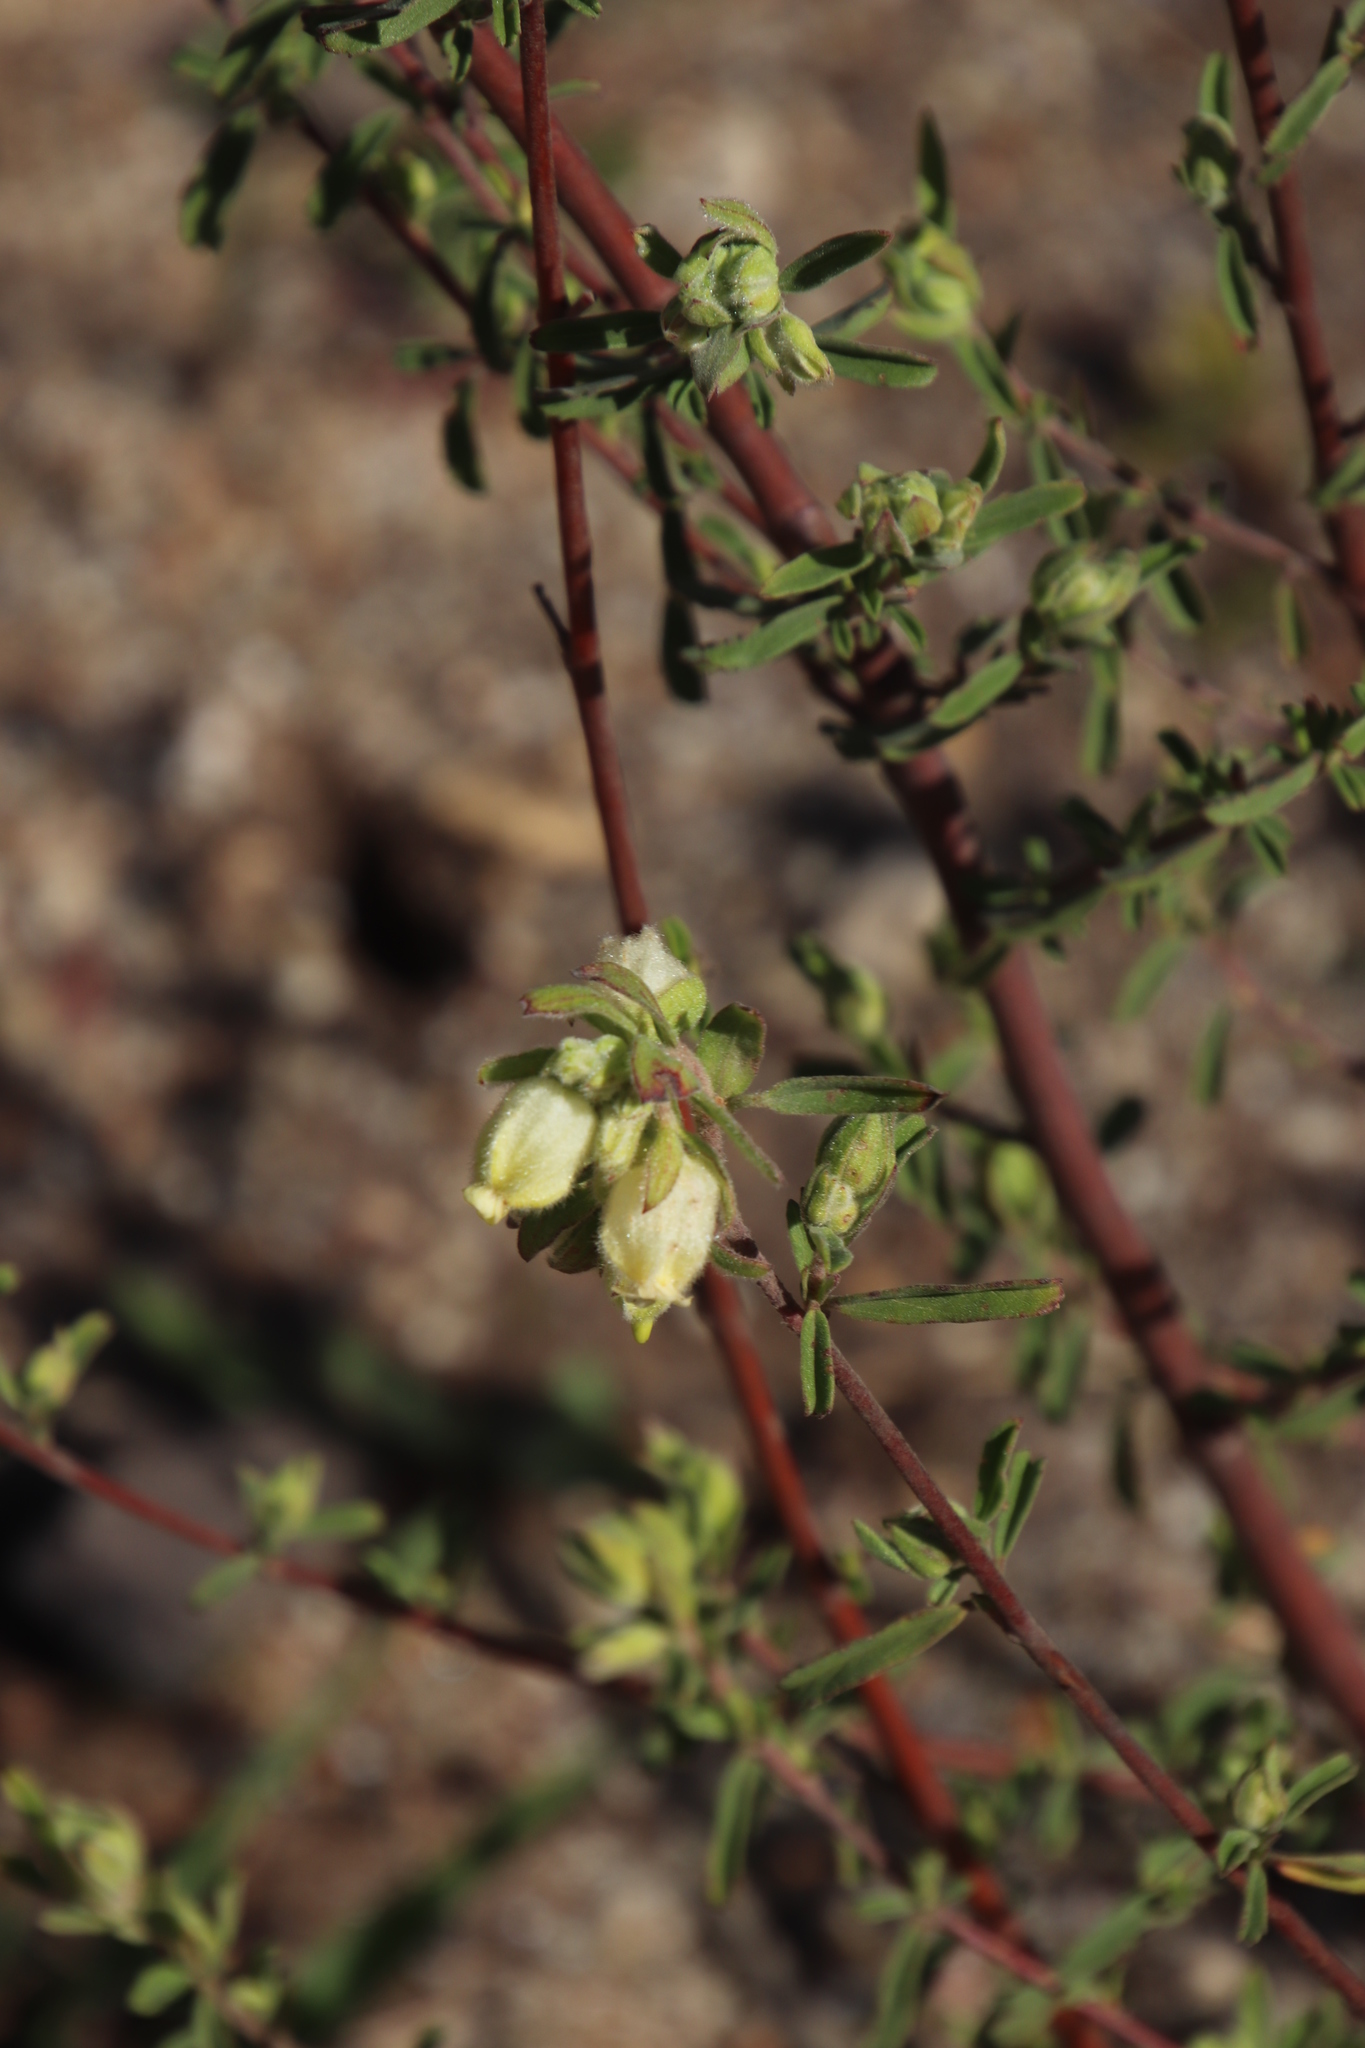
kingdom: Plantae
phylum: Tracheophyta
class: Magnoliopsida
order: Malvales
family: Malvaceae
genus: Hermannia
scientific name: Hermannia hyssopifolia
